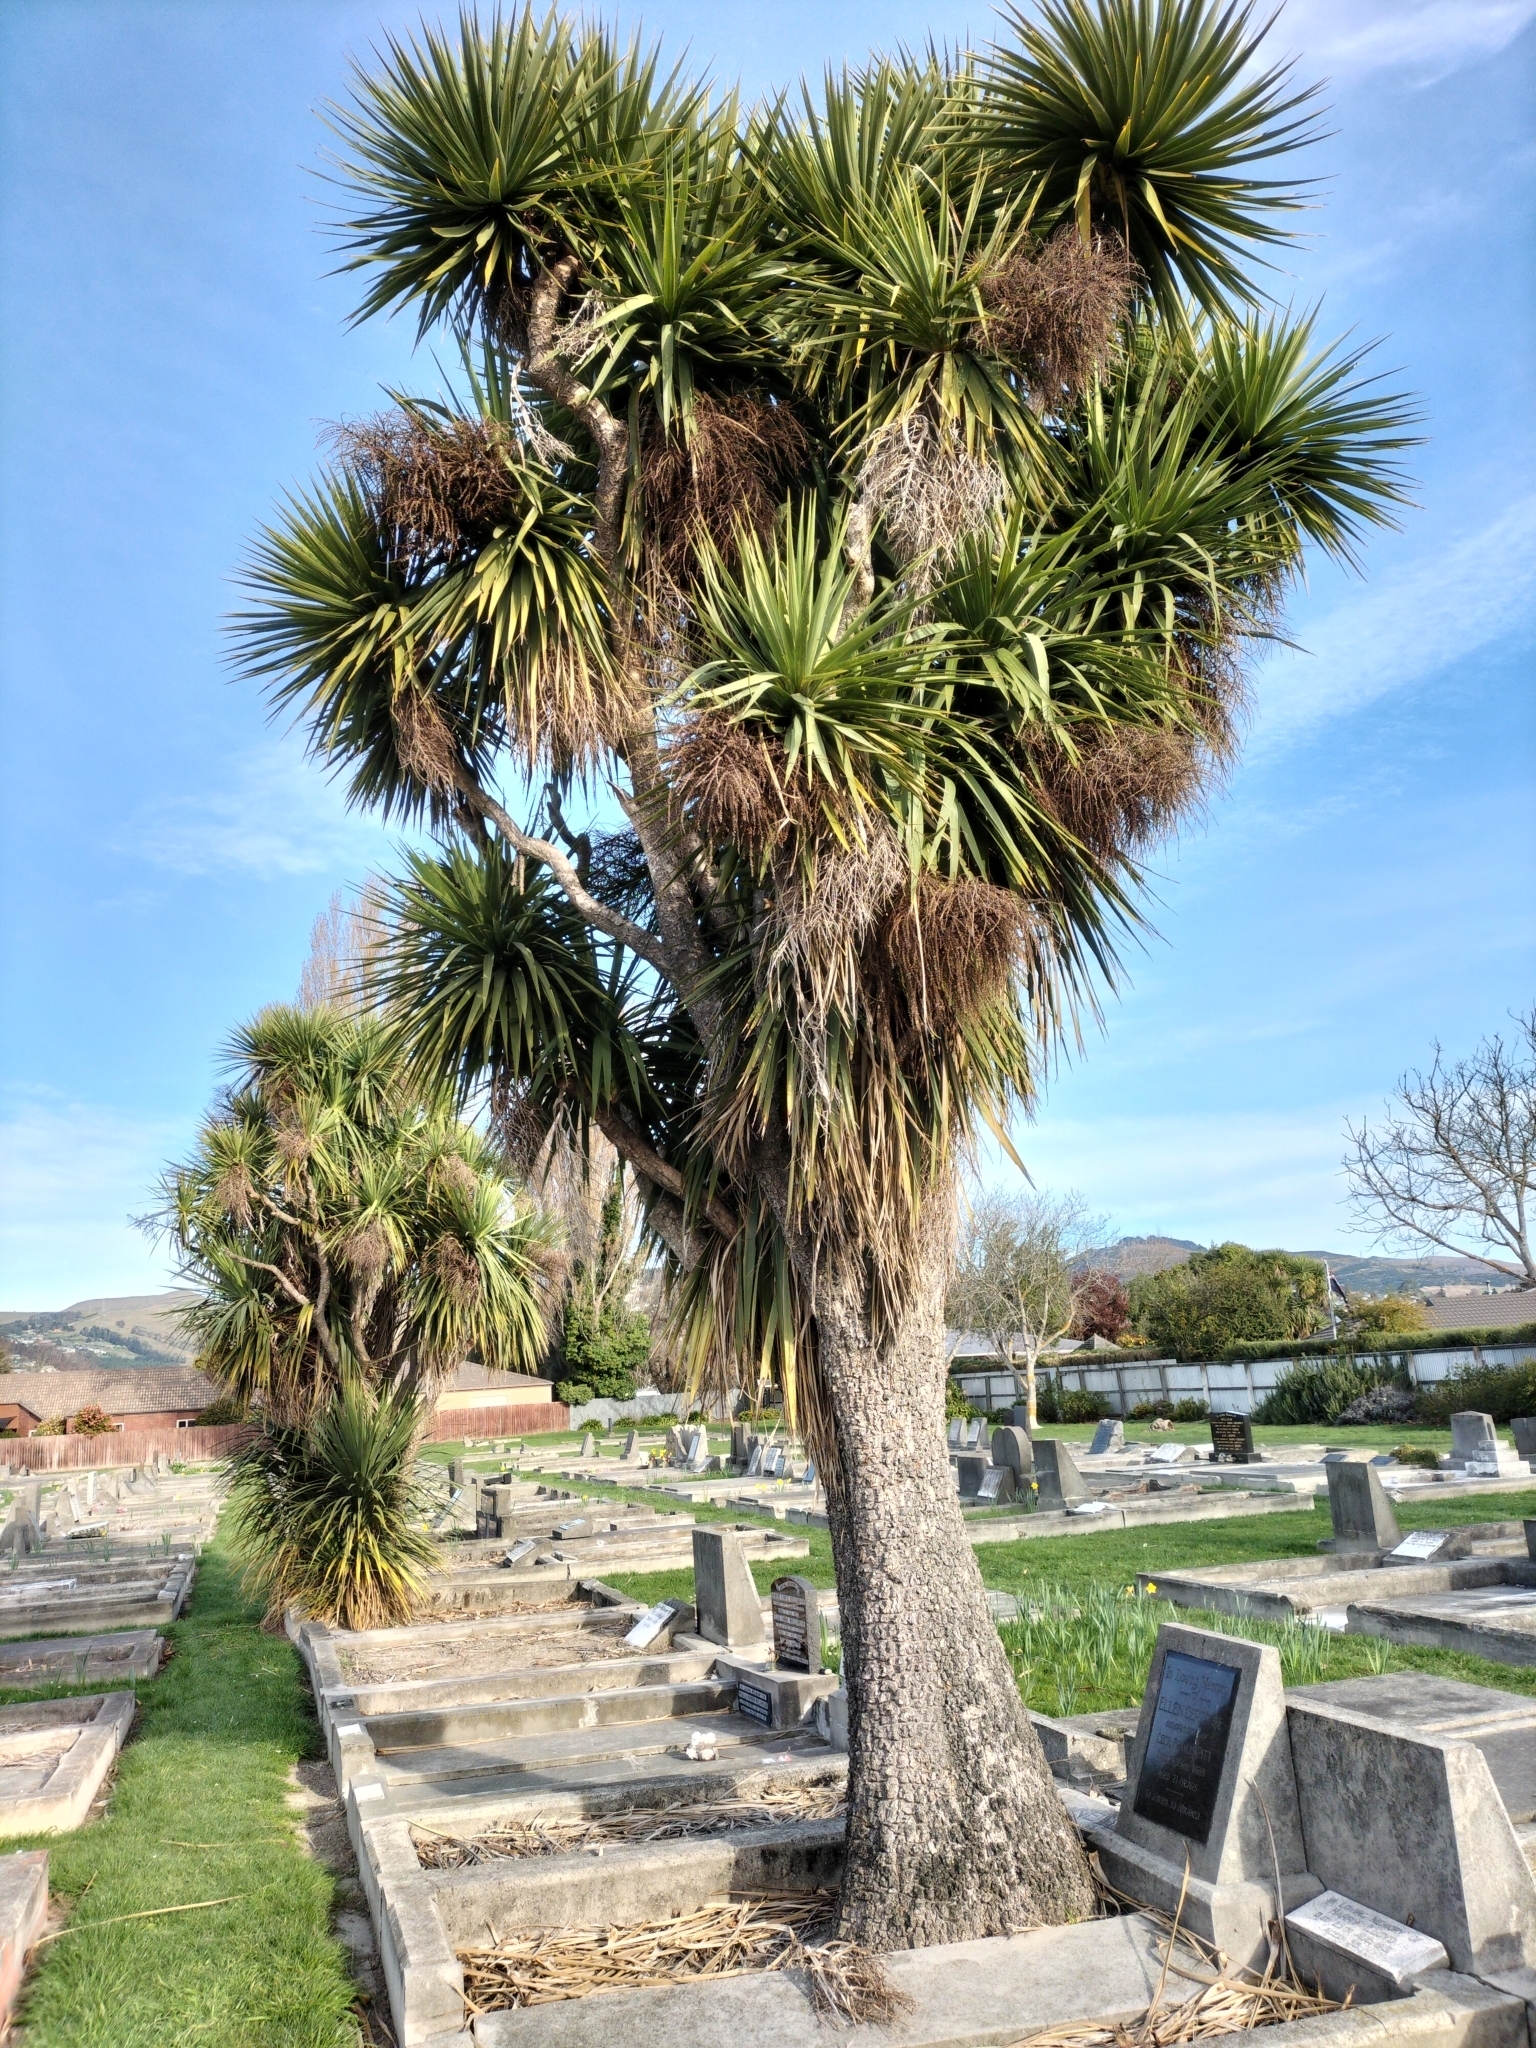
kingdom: Plantae
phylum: Tracheophyta
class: Liliopsida
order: Asparagales
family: Asparagaceae
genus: Cordyline
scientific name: Cordyline australis
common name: Cabbage-palm
